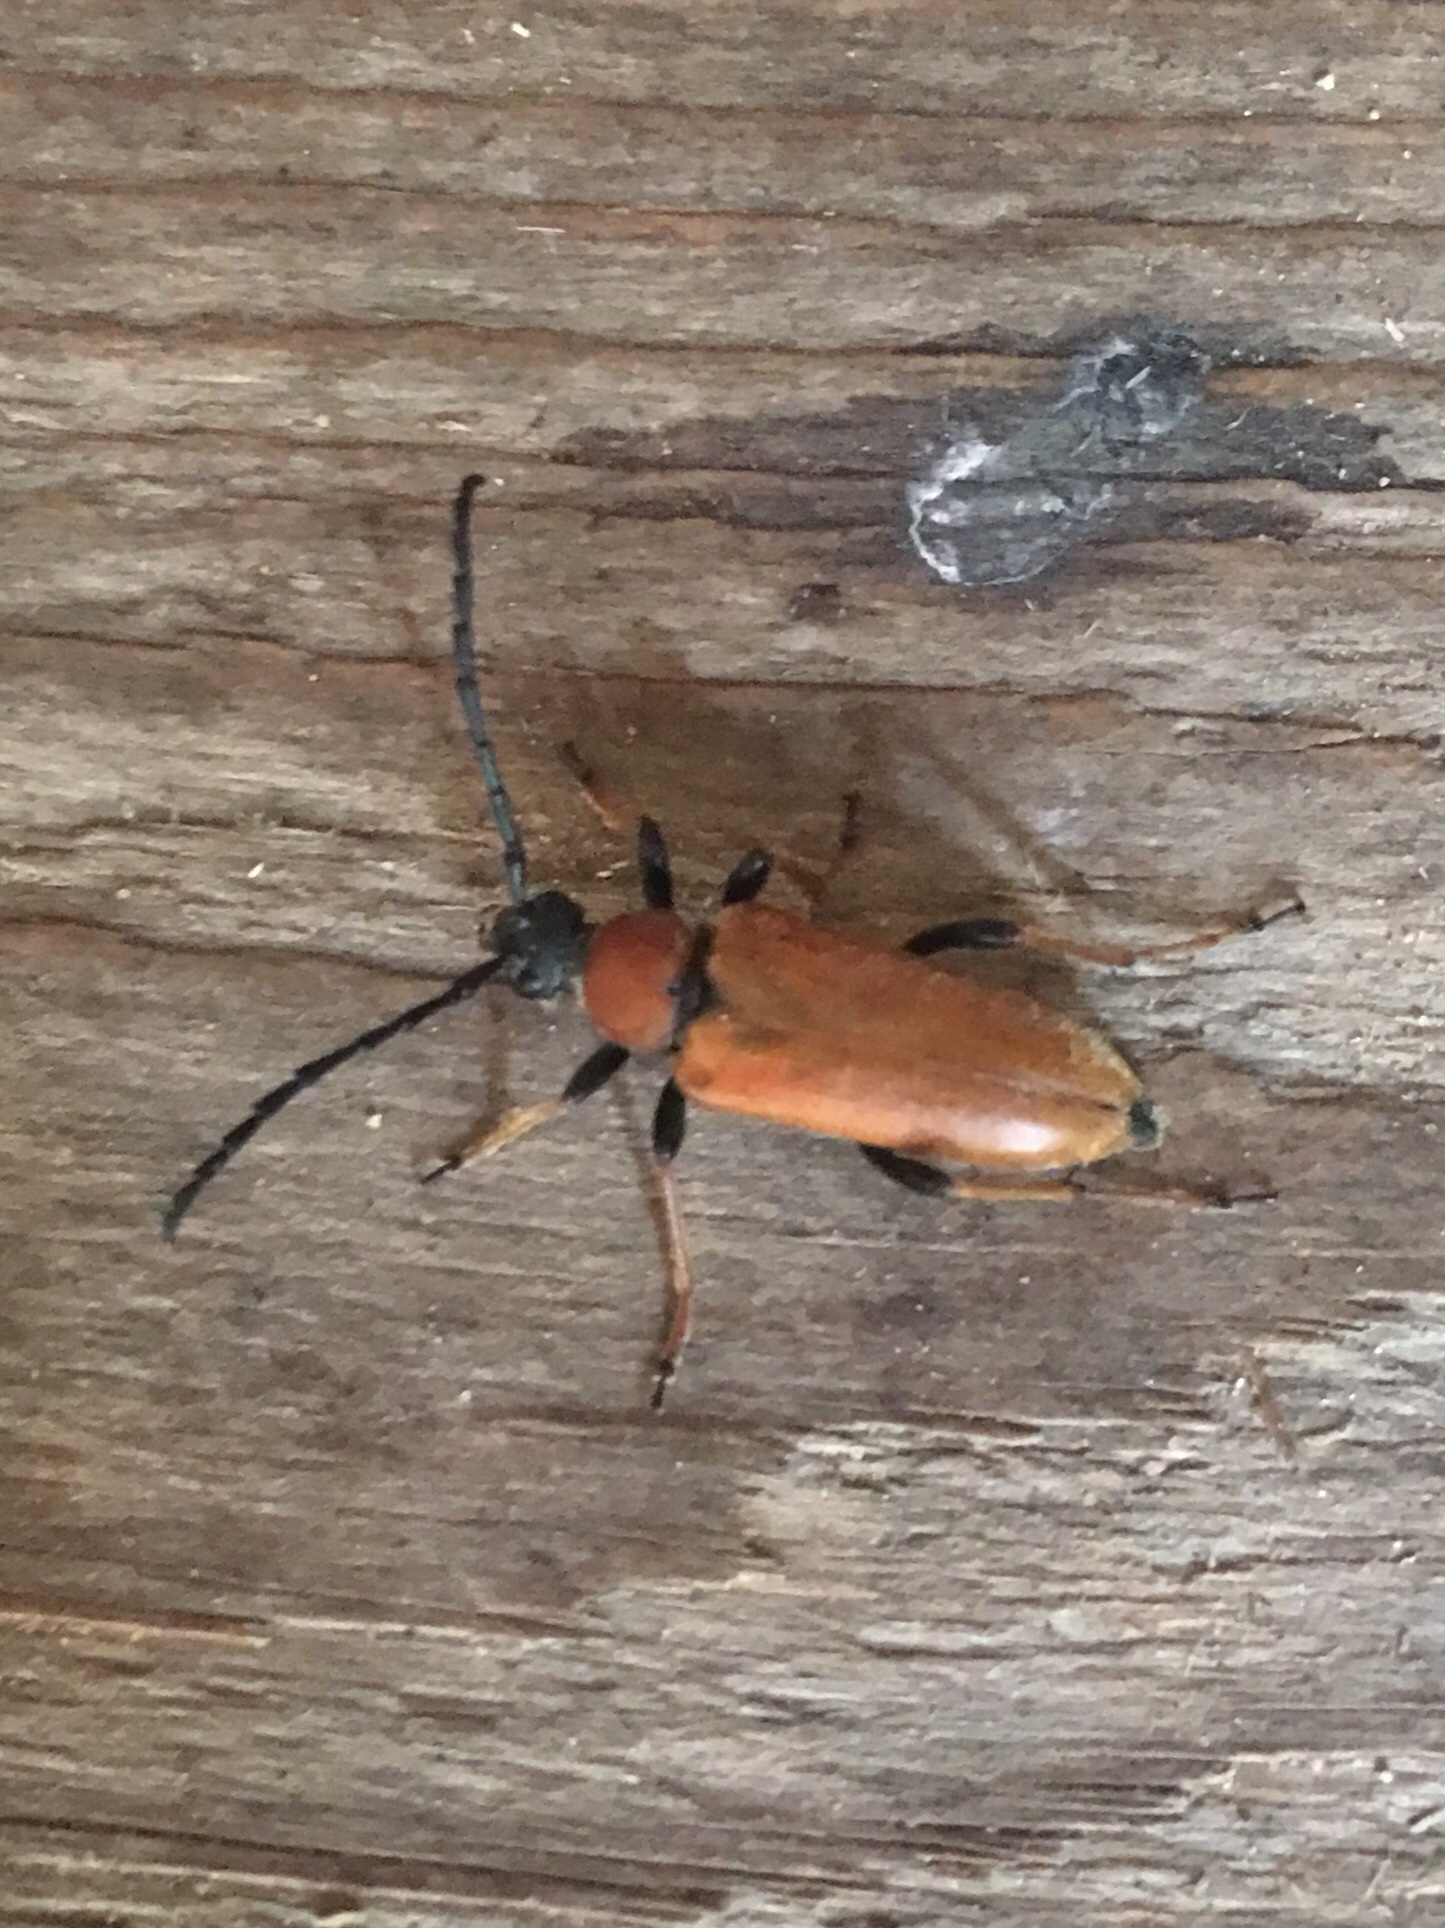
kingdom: Animalia
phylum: Arthropoda
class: Insecta
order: Coleoptera
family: Cerambycidae
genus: Stictoleptura
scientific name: Stictoleptura rubra
